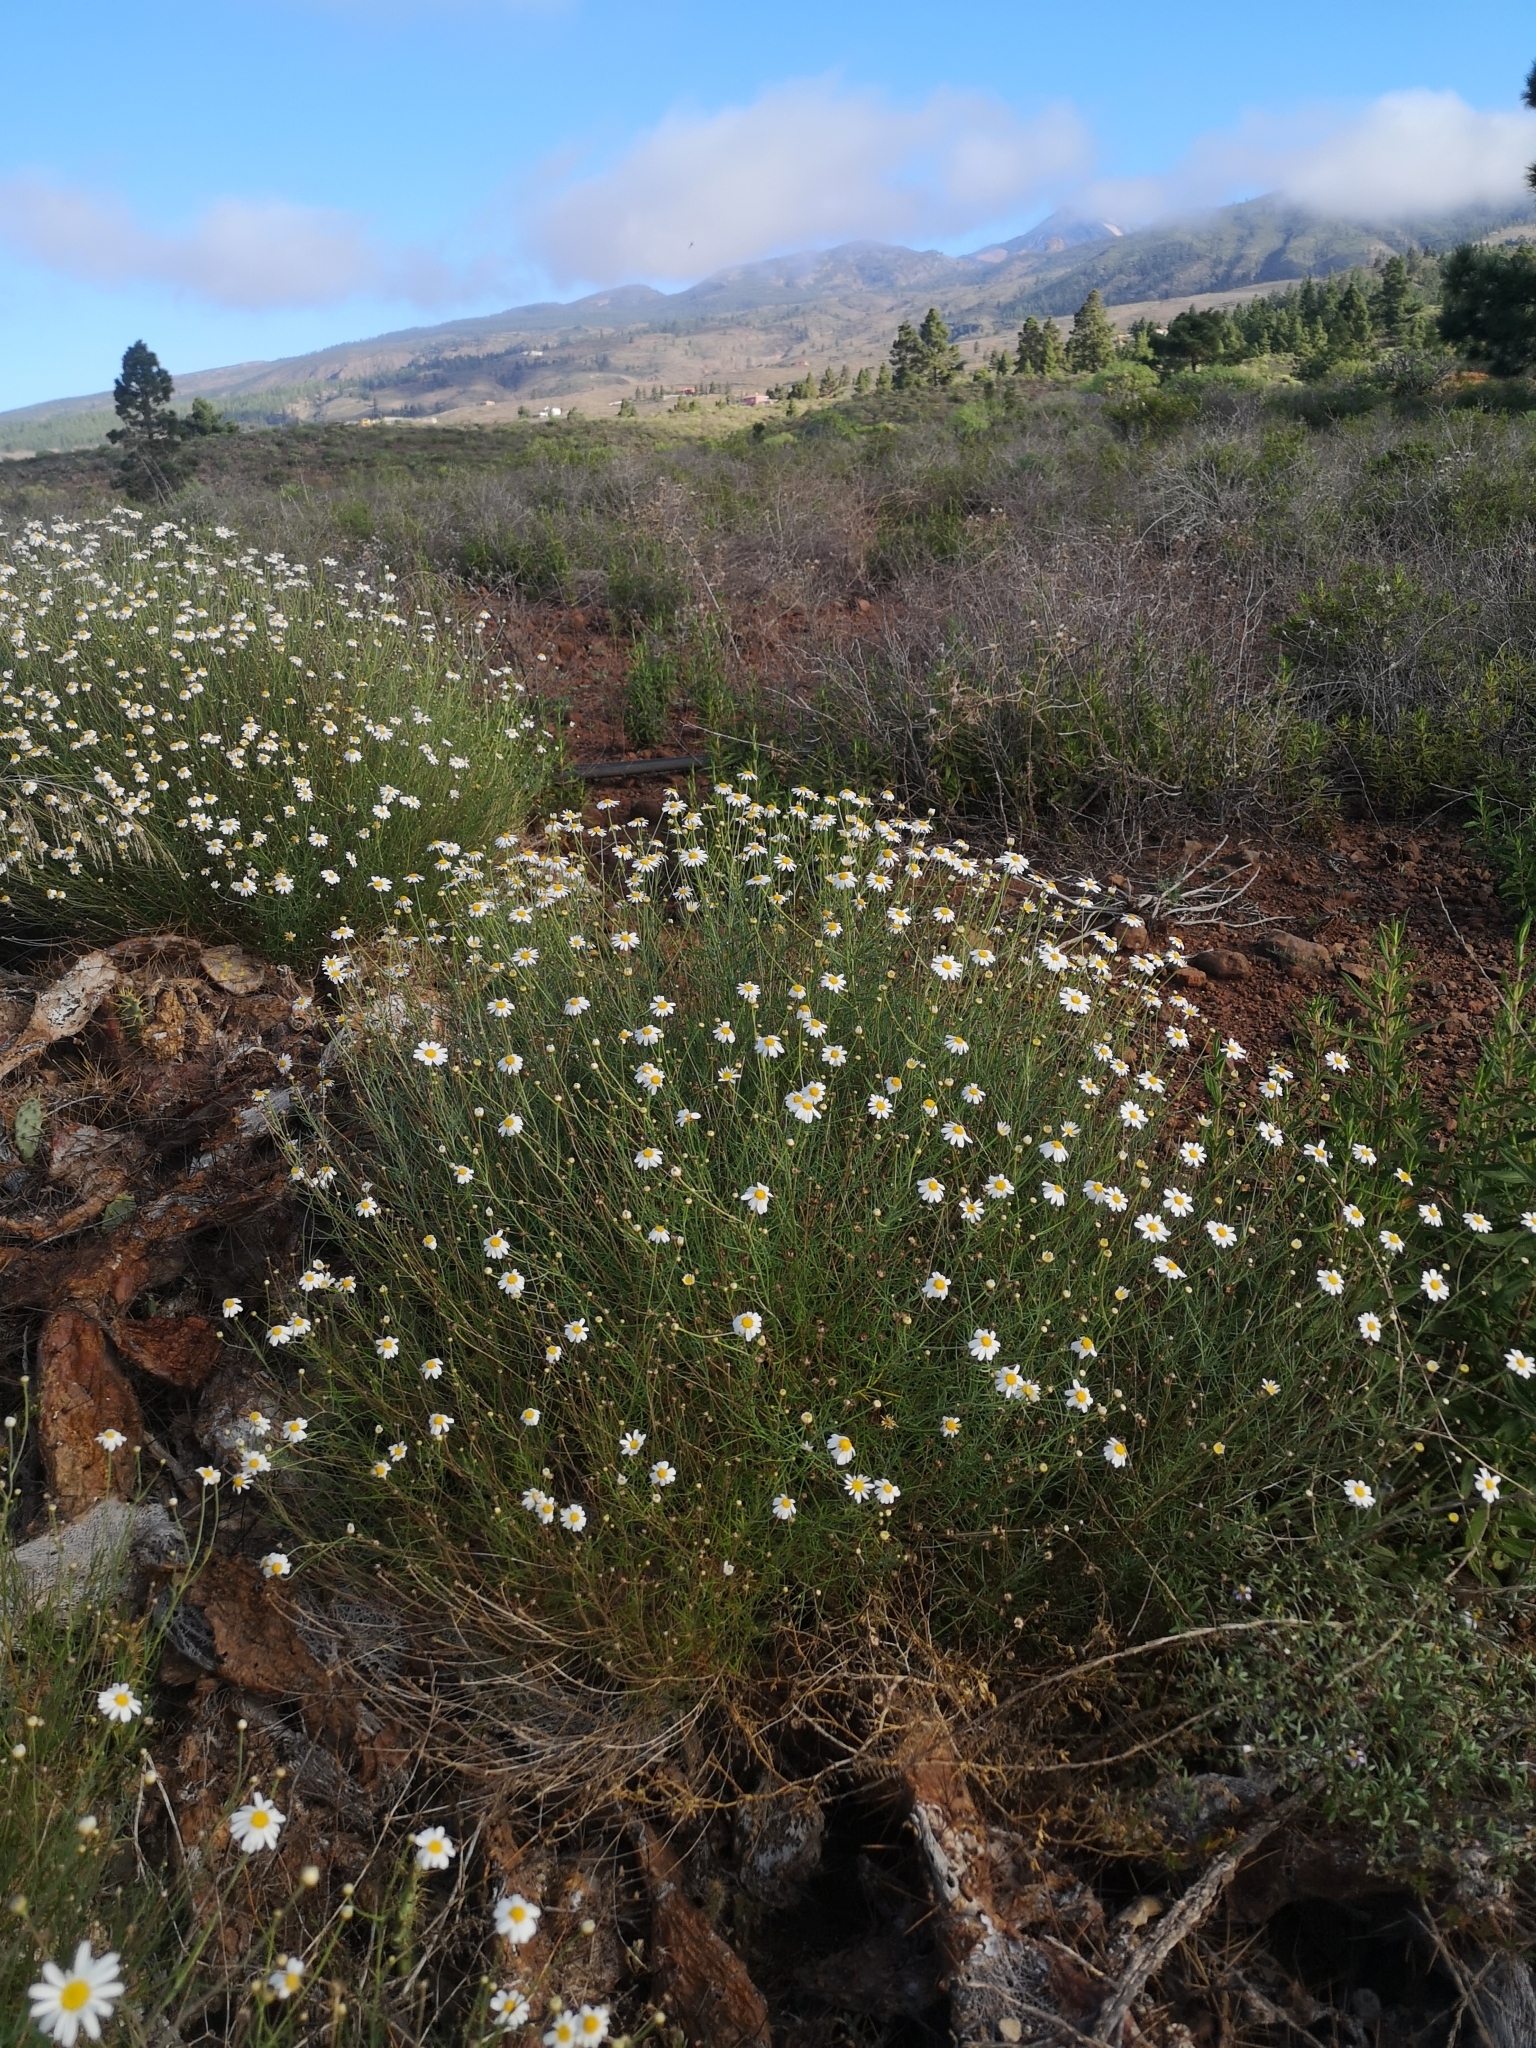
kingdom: Plantae
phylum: Tracheophyta
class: Magnoliopsida
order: Asterales
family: Asteraceae
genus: Argyranthemum
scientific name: Argyranthemum gracile
